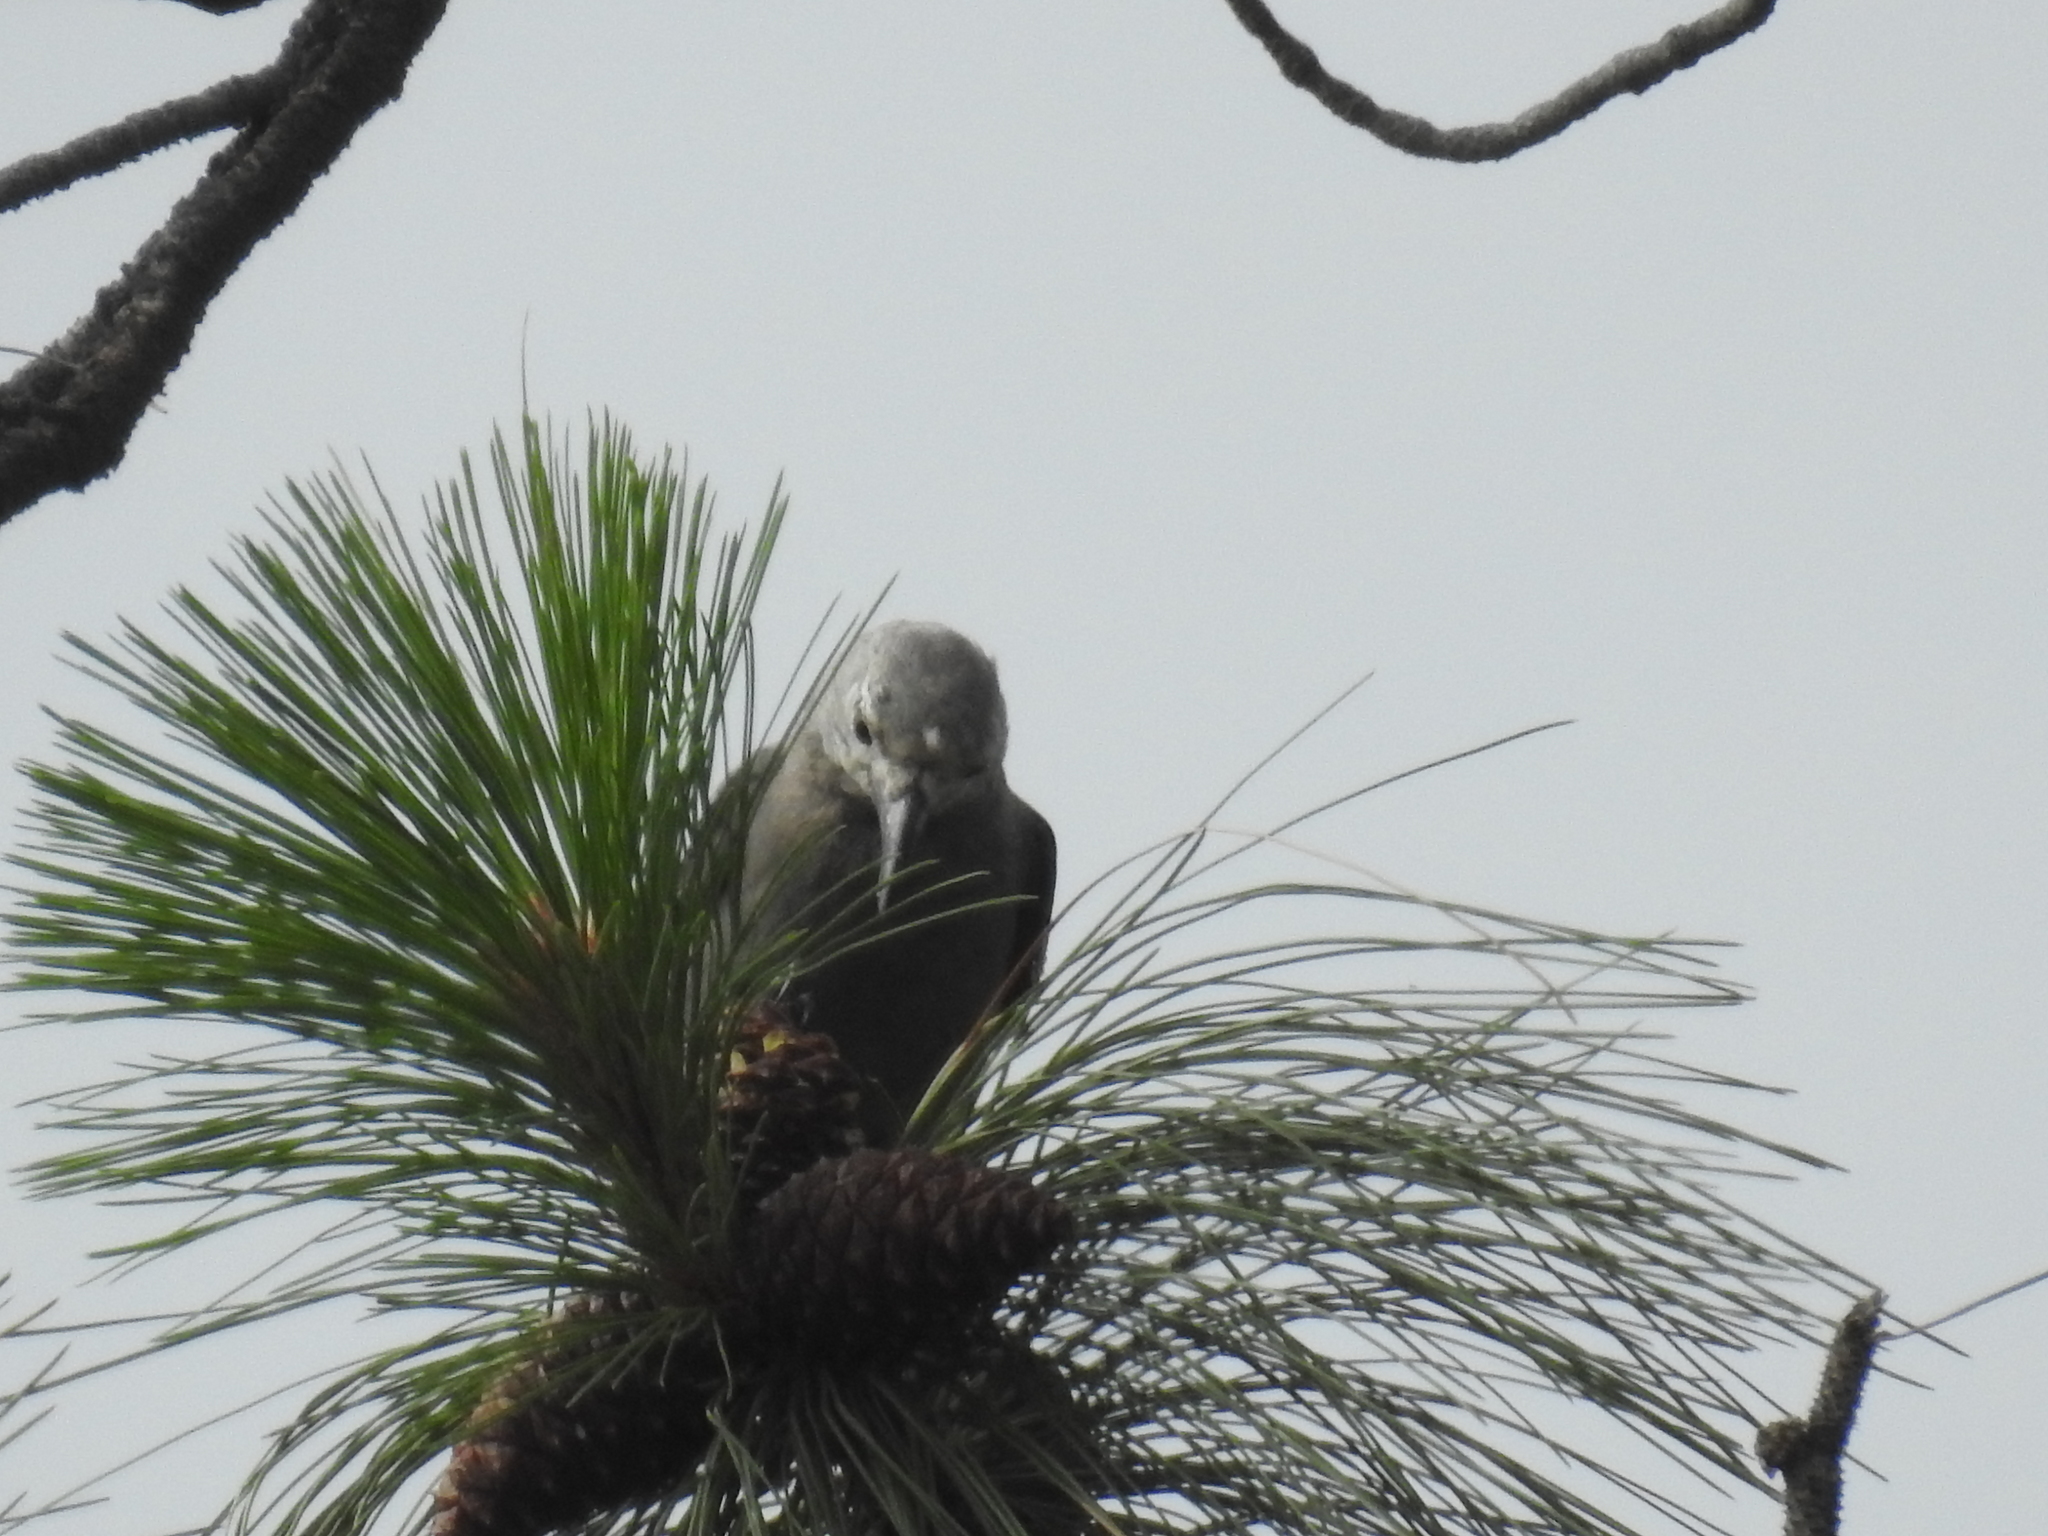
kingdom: Animalia
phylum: Chordata
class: Aves
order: Passeriformes
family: Corvidae
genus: Nucifraga
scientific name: Nucifraga columbiana
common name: Clark's nutcracker
